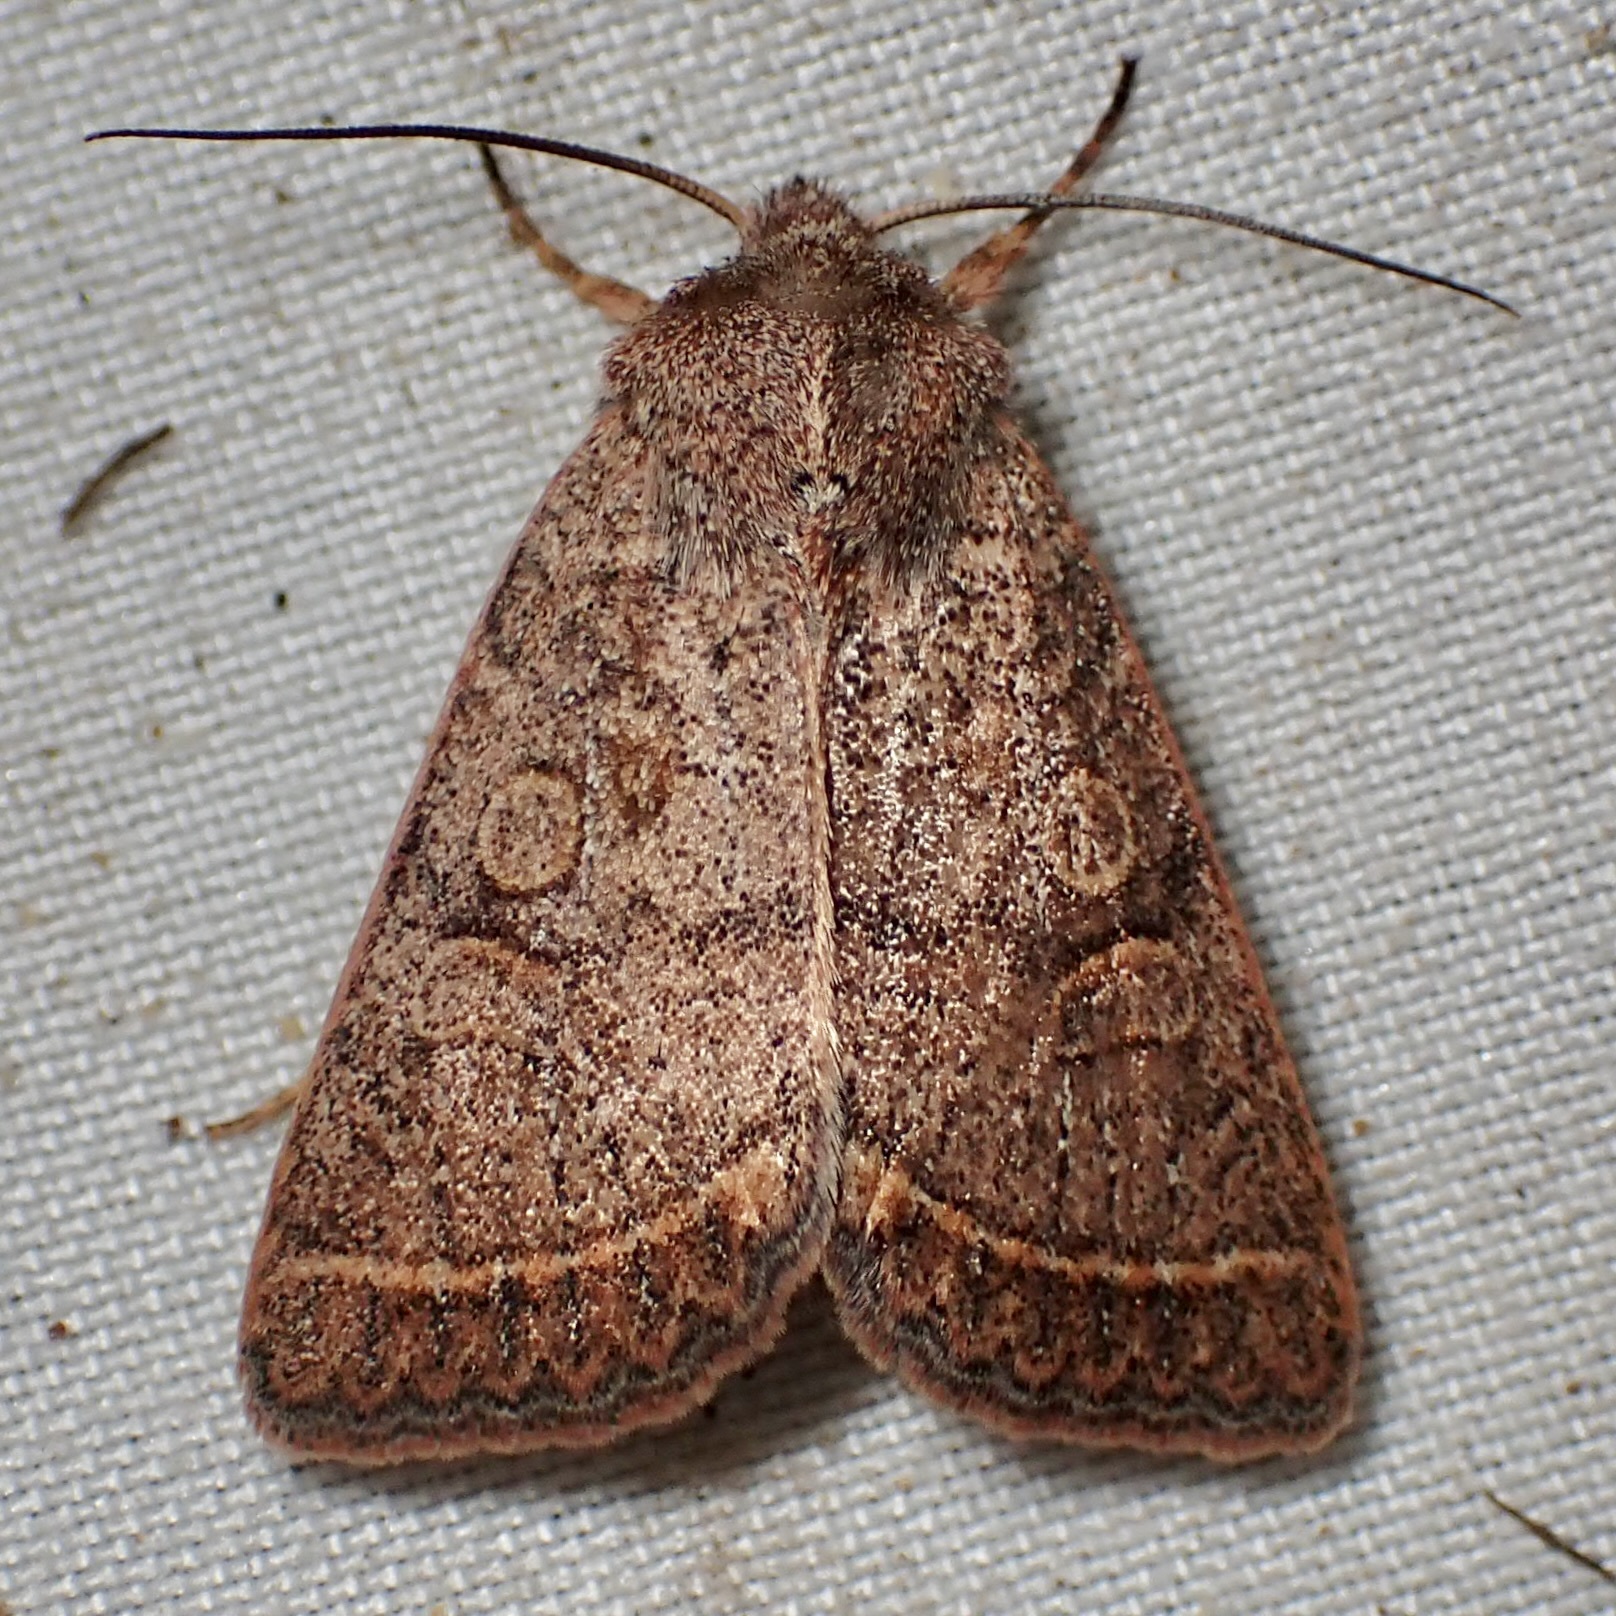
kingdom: Animalia
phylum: Arthropoda
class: Insecta
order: Lepidoptera
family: Noctuidae
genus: Homorthodes
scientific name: Homorthodes rectiflava
